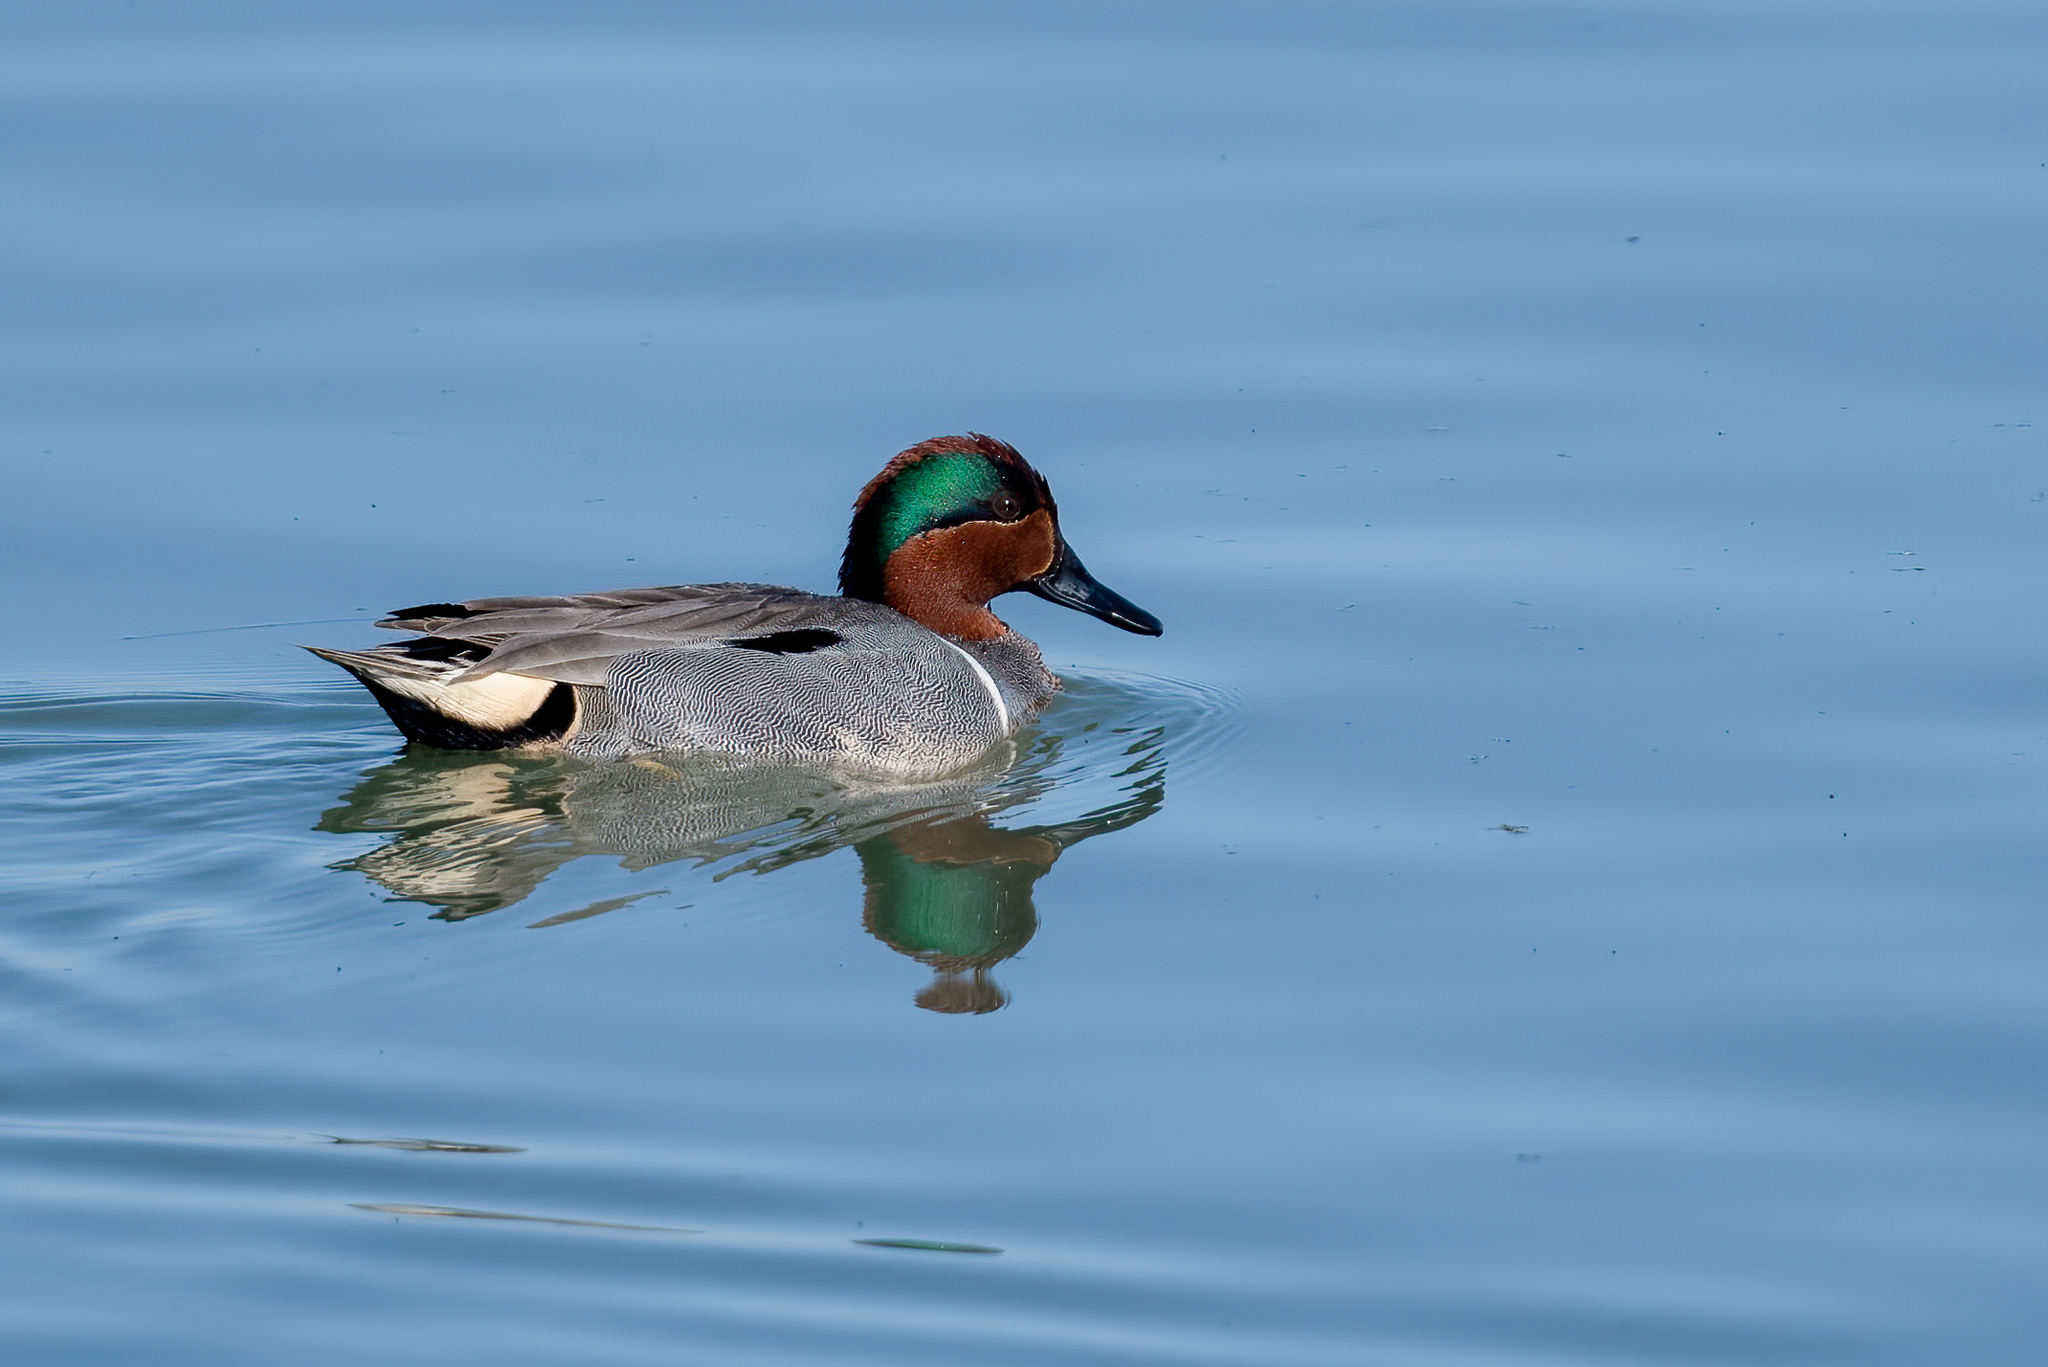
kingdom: Animalia
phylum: Chordata
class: Aves
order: Anseriformes
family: Anatidae
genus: Anas
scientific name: Anas crecca
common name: Eurasian teal
